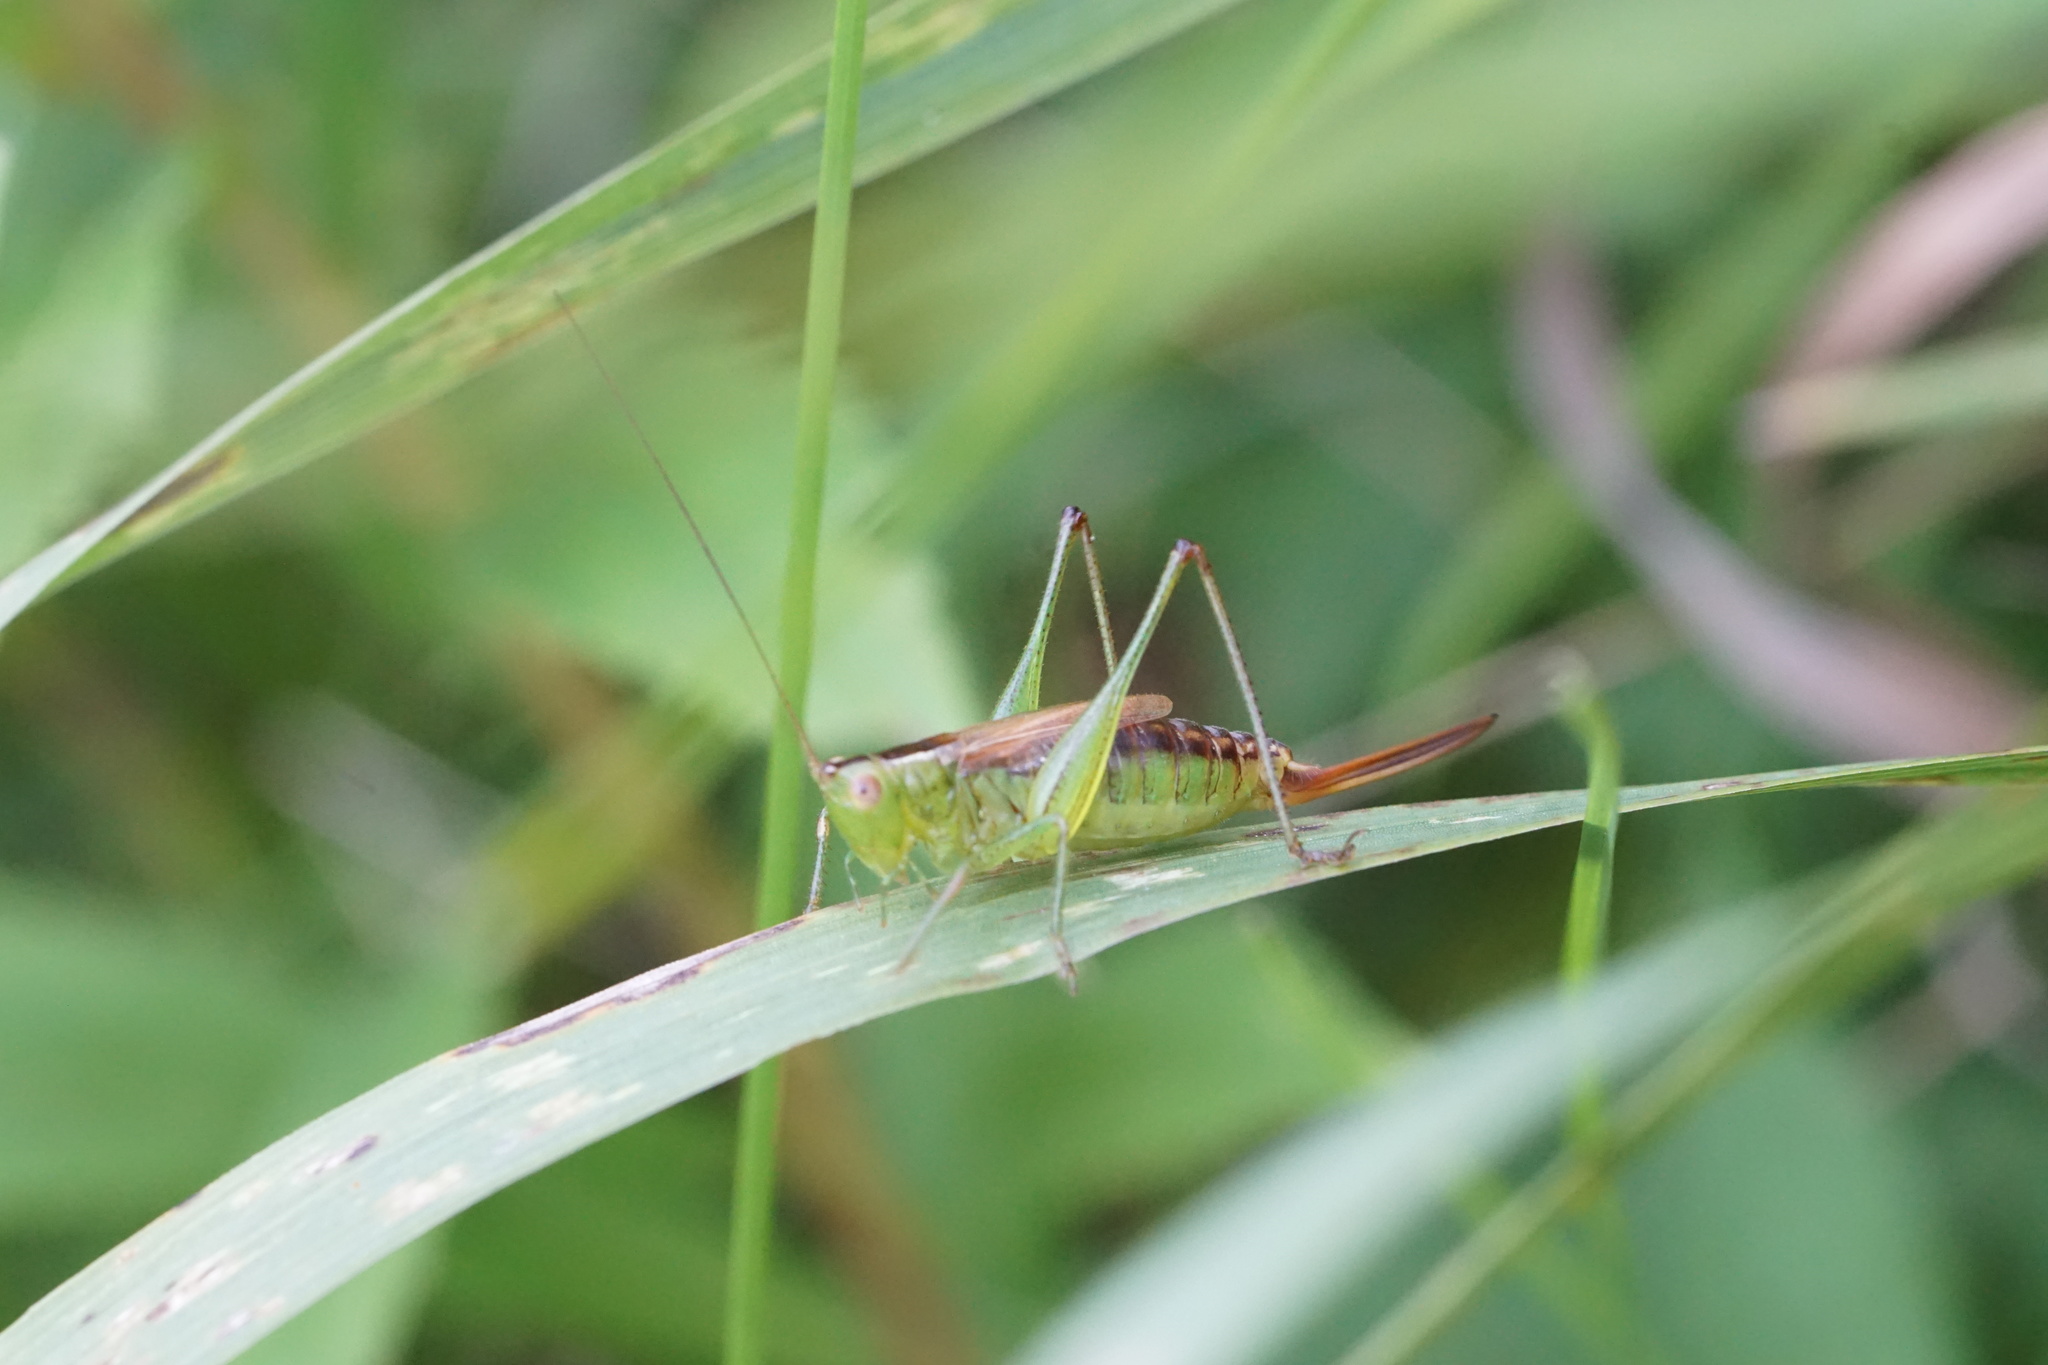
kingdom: Animalia
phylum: Arthropoda
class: Insecta
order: Orthoptera
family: Tettigoniidae
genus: Conocephalus
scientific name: Conocephalus brevipennis
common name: Short-winged meadow katydid
